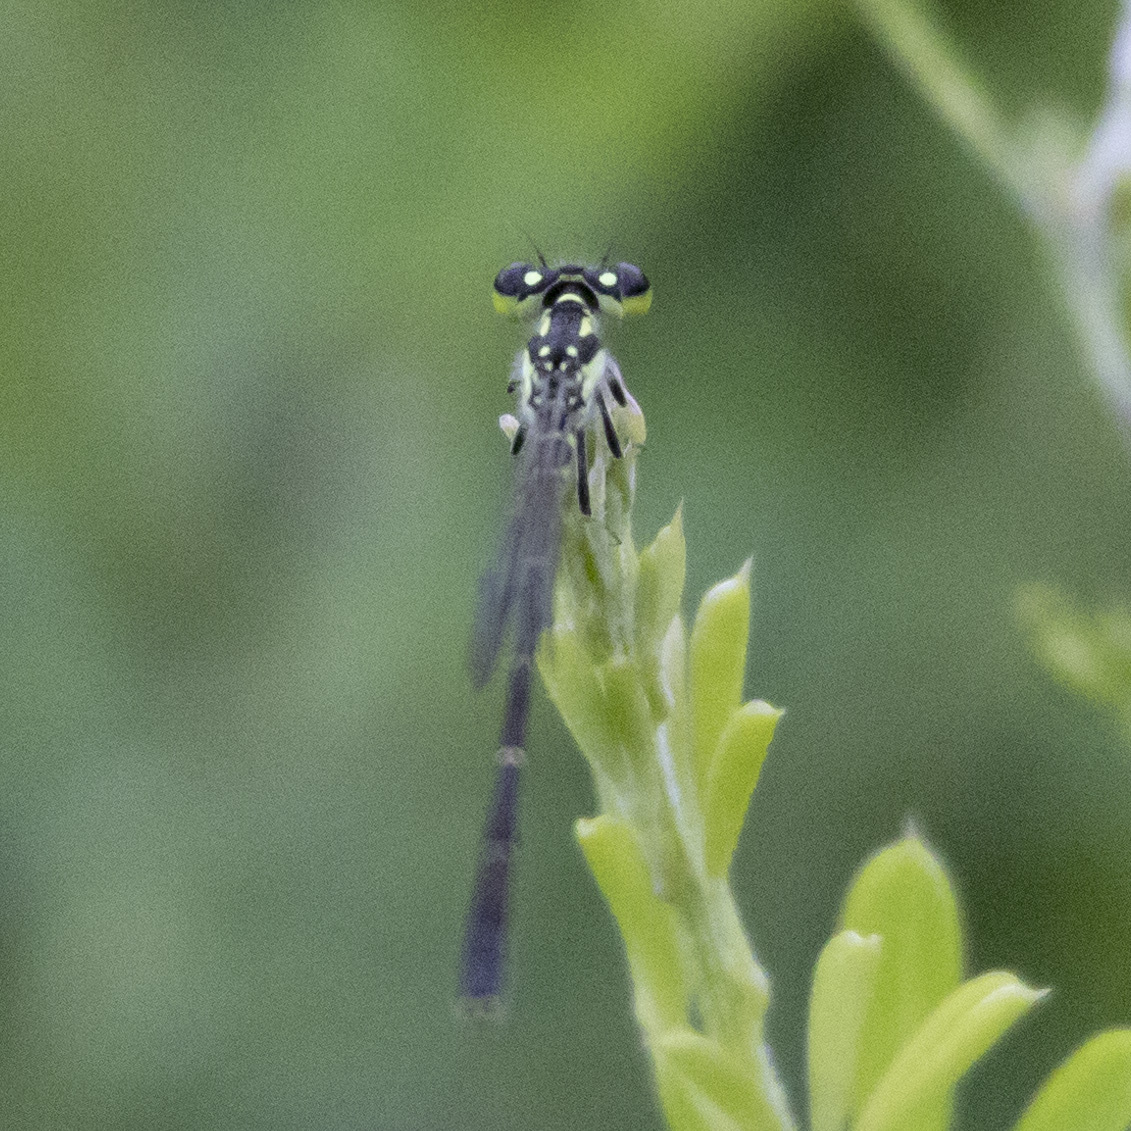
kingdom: Animalia
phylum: Arthropoda
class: Insecta
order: Odonata
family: Coenagrionidae
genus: Ischnura
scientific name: Ischnura posita
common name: Fragile forktail
